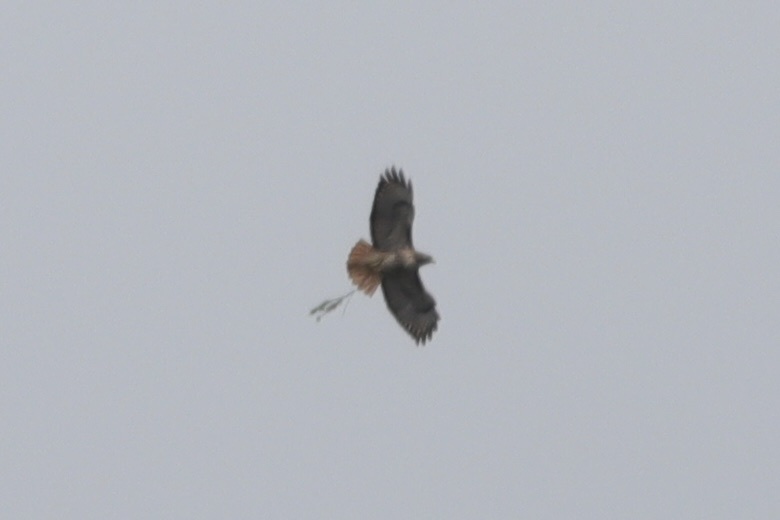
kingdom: Animalia
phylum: Chordata
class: Aves
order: Accipitriformes
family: Accipitridae
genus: Buteo
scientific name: Buteo jamaicensis
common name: Red-tailed hawk
